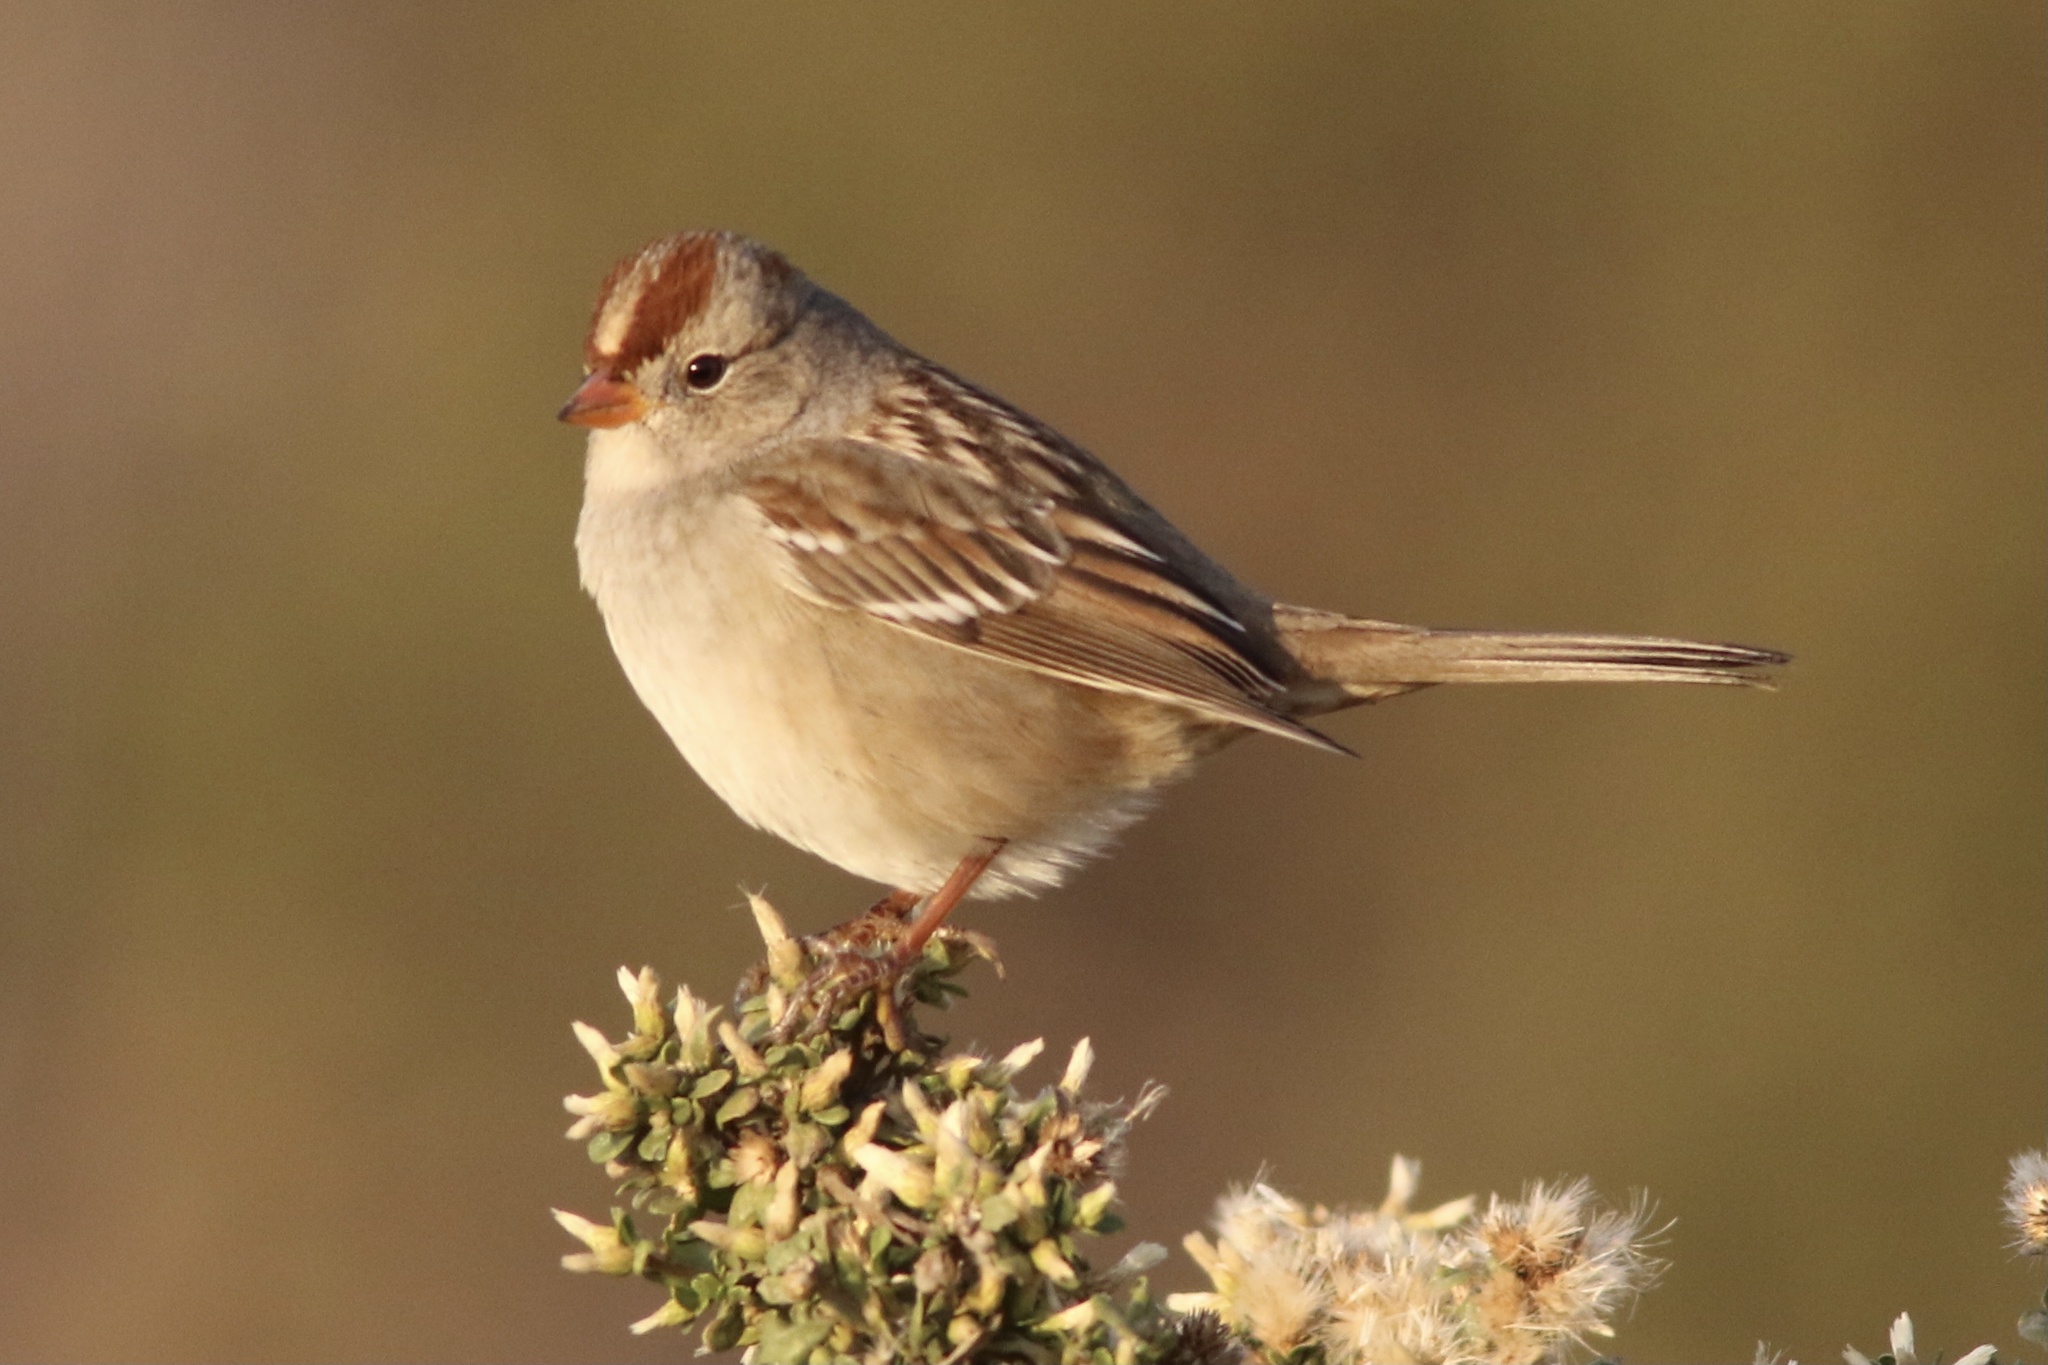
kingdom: Animalia
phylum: Chordata
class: Aves
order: Passeriformes
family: Passerellidae
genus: Zonotrichia
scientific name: Zonotrichia leucophrys
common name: White-crowned sparrow
